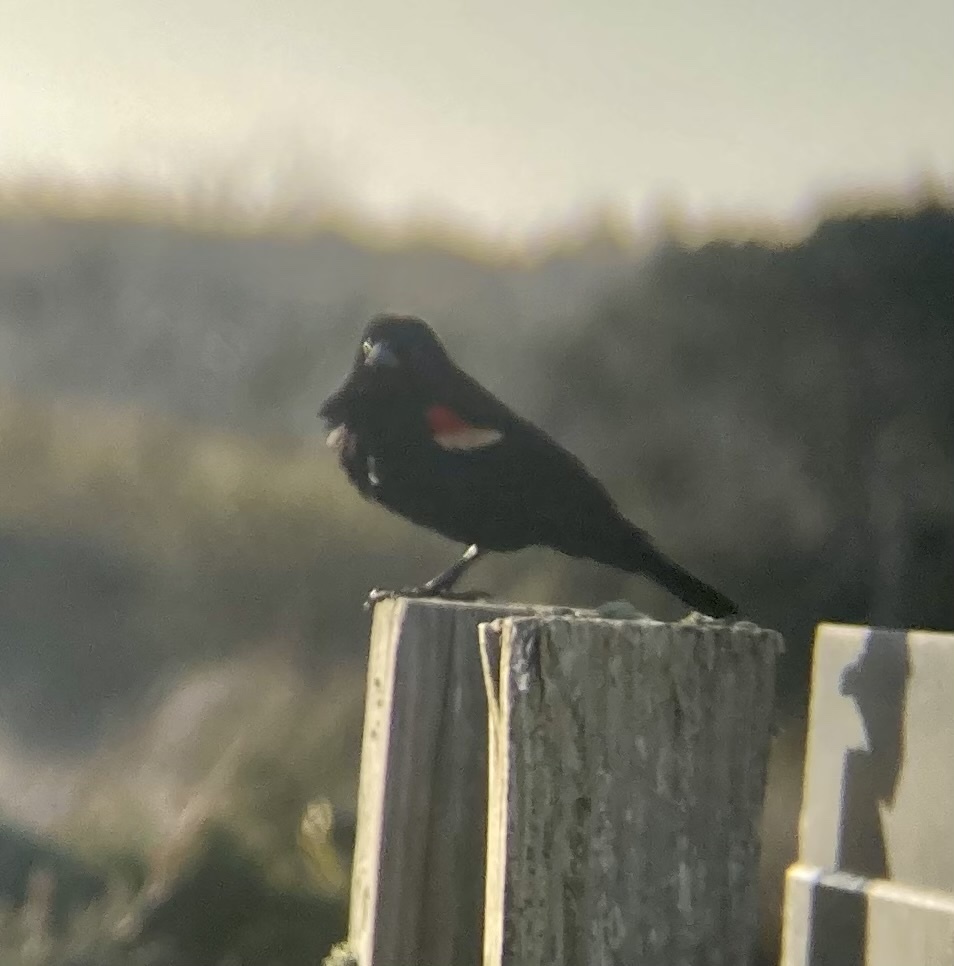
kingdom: Animalia
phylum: Chordata
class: Aves
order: Passeriformes
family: Icteridae
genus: Agelaius
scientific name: Agelaius phoeniceus
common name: Red-winged blackbird
